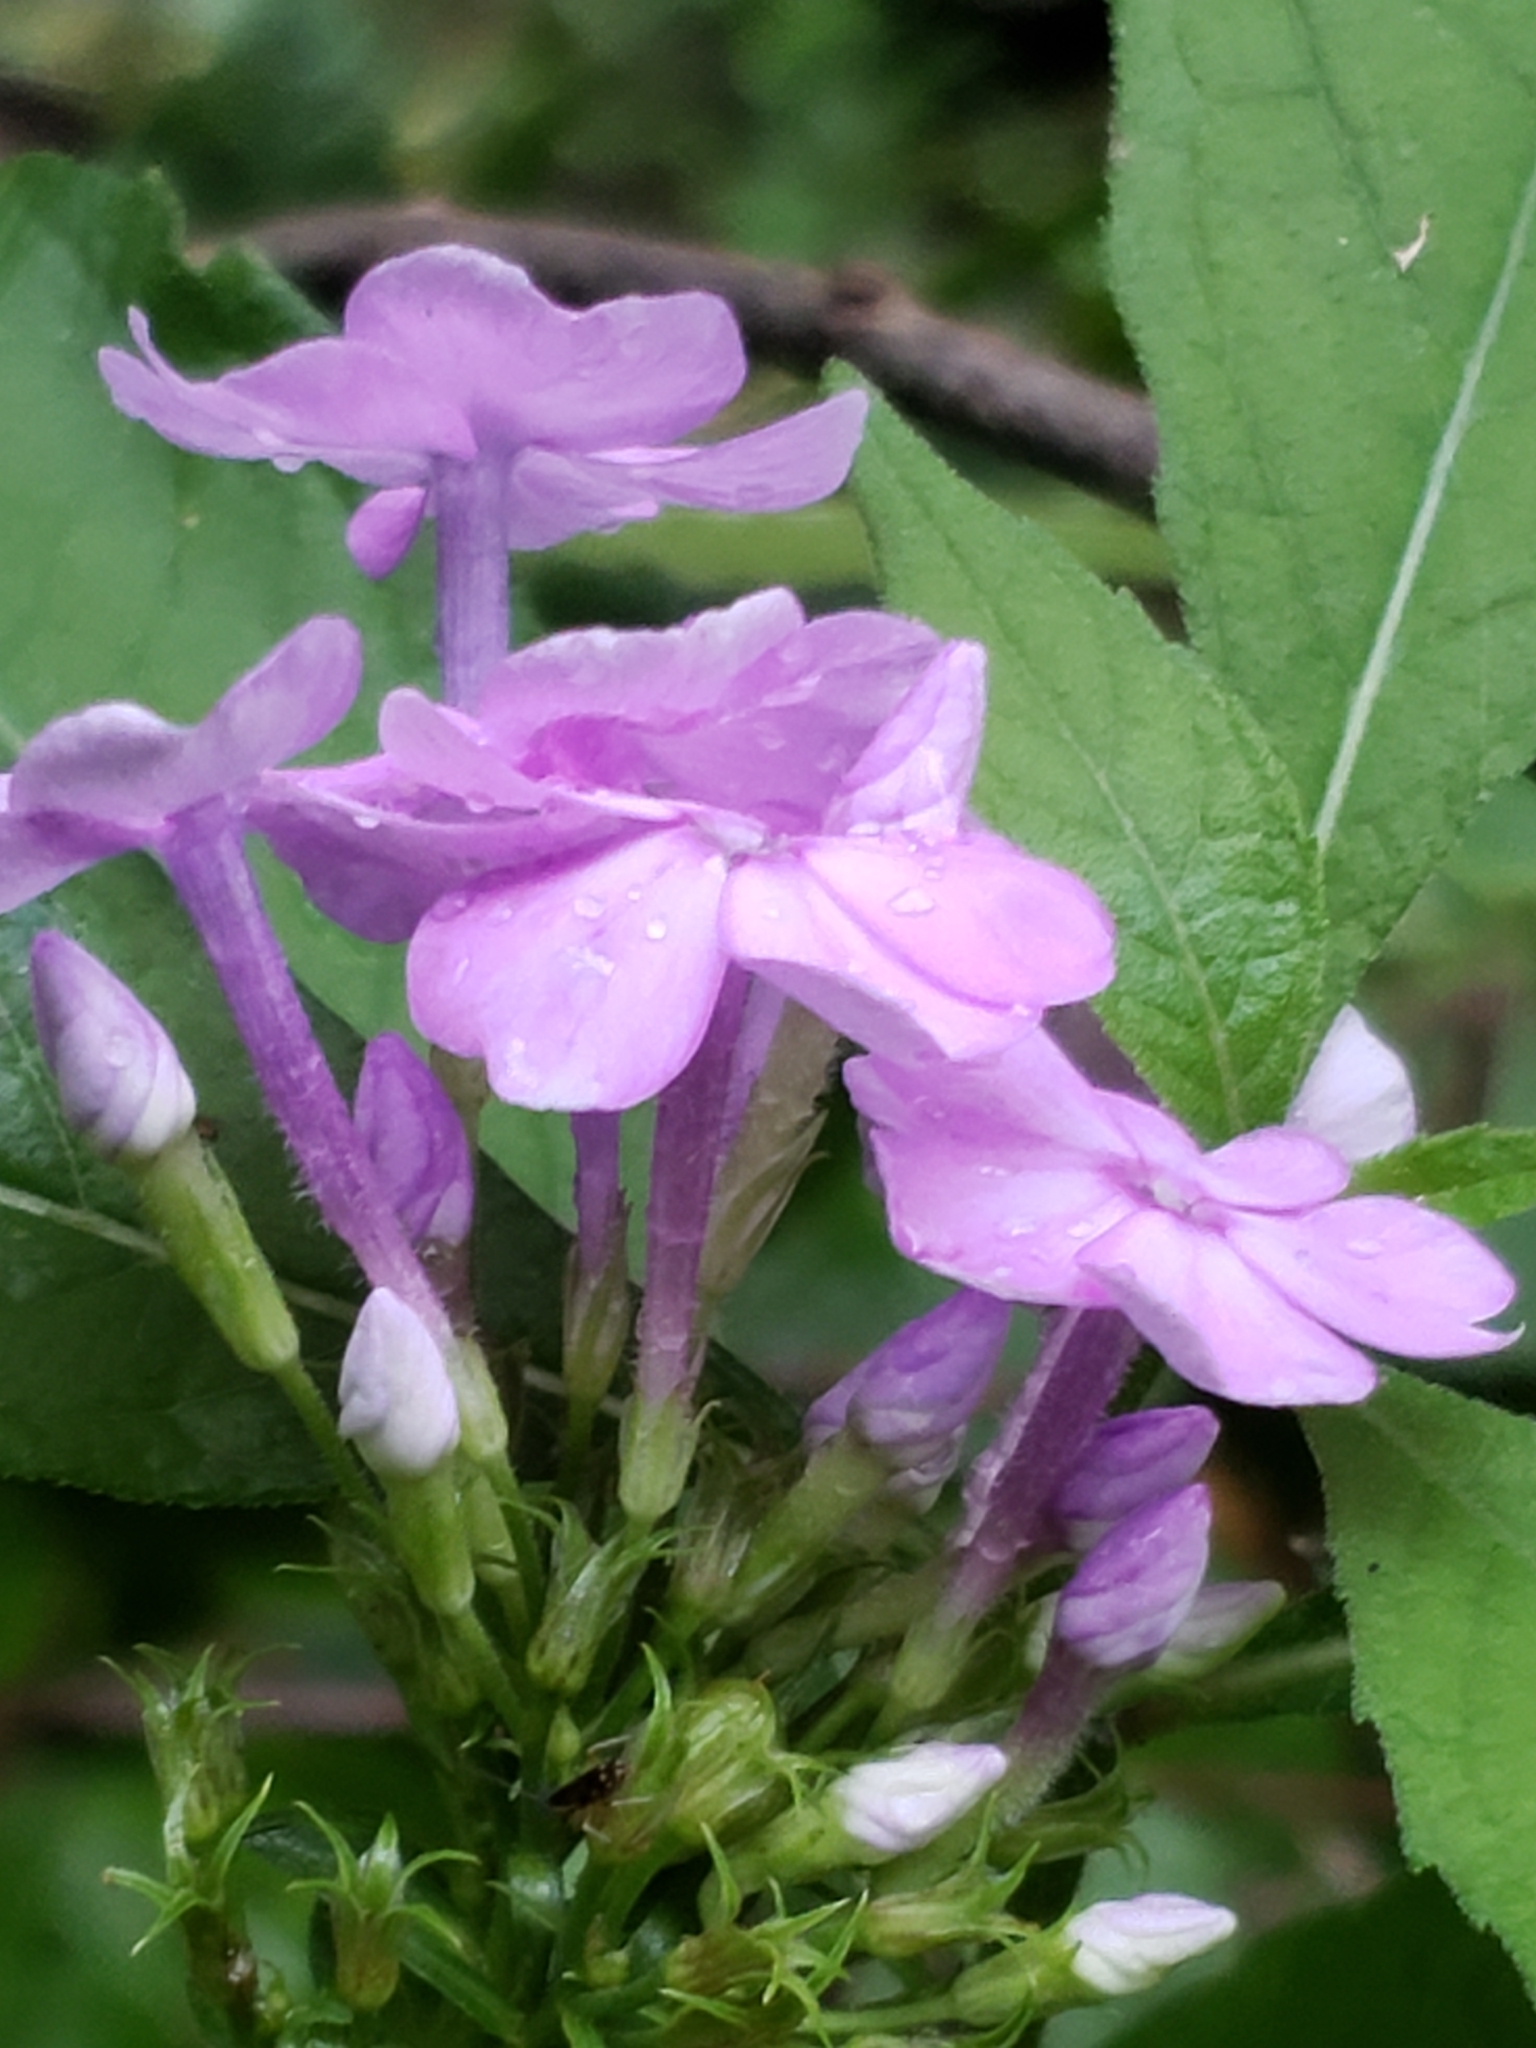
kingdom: Plantae
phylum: Tracheophyta
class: Magnoliopsida
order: Ericales
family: Polemoniaceae
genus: Phlox
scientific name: Phlox paniculata
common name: Fall phlox
